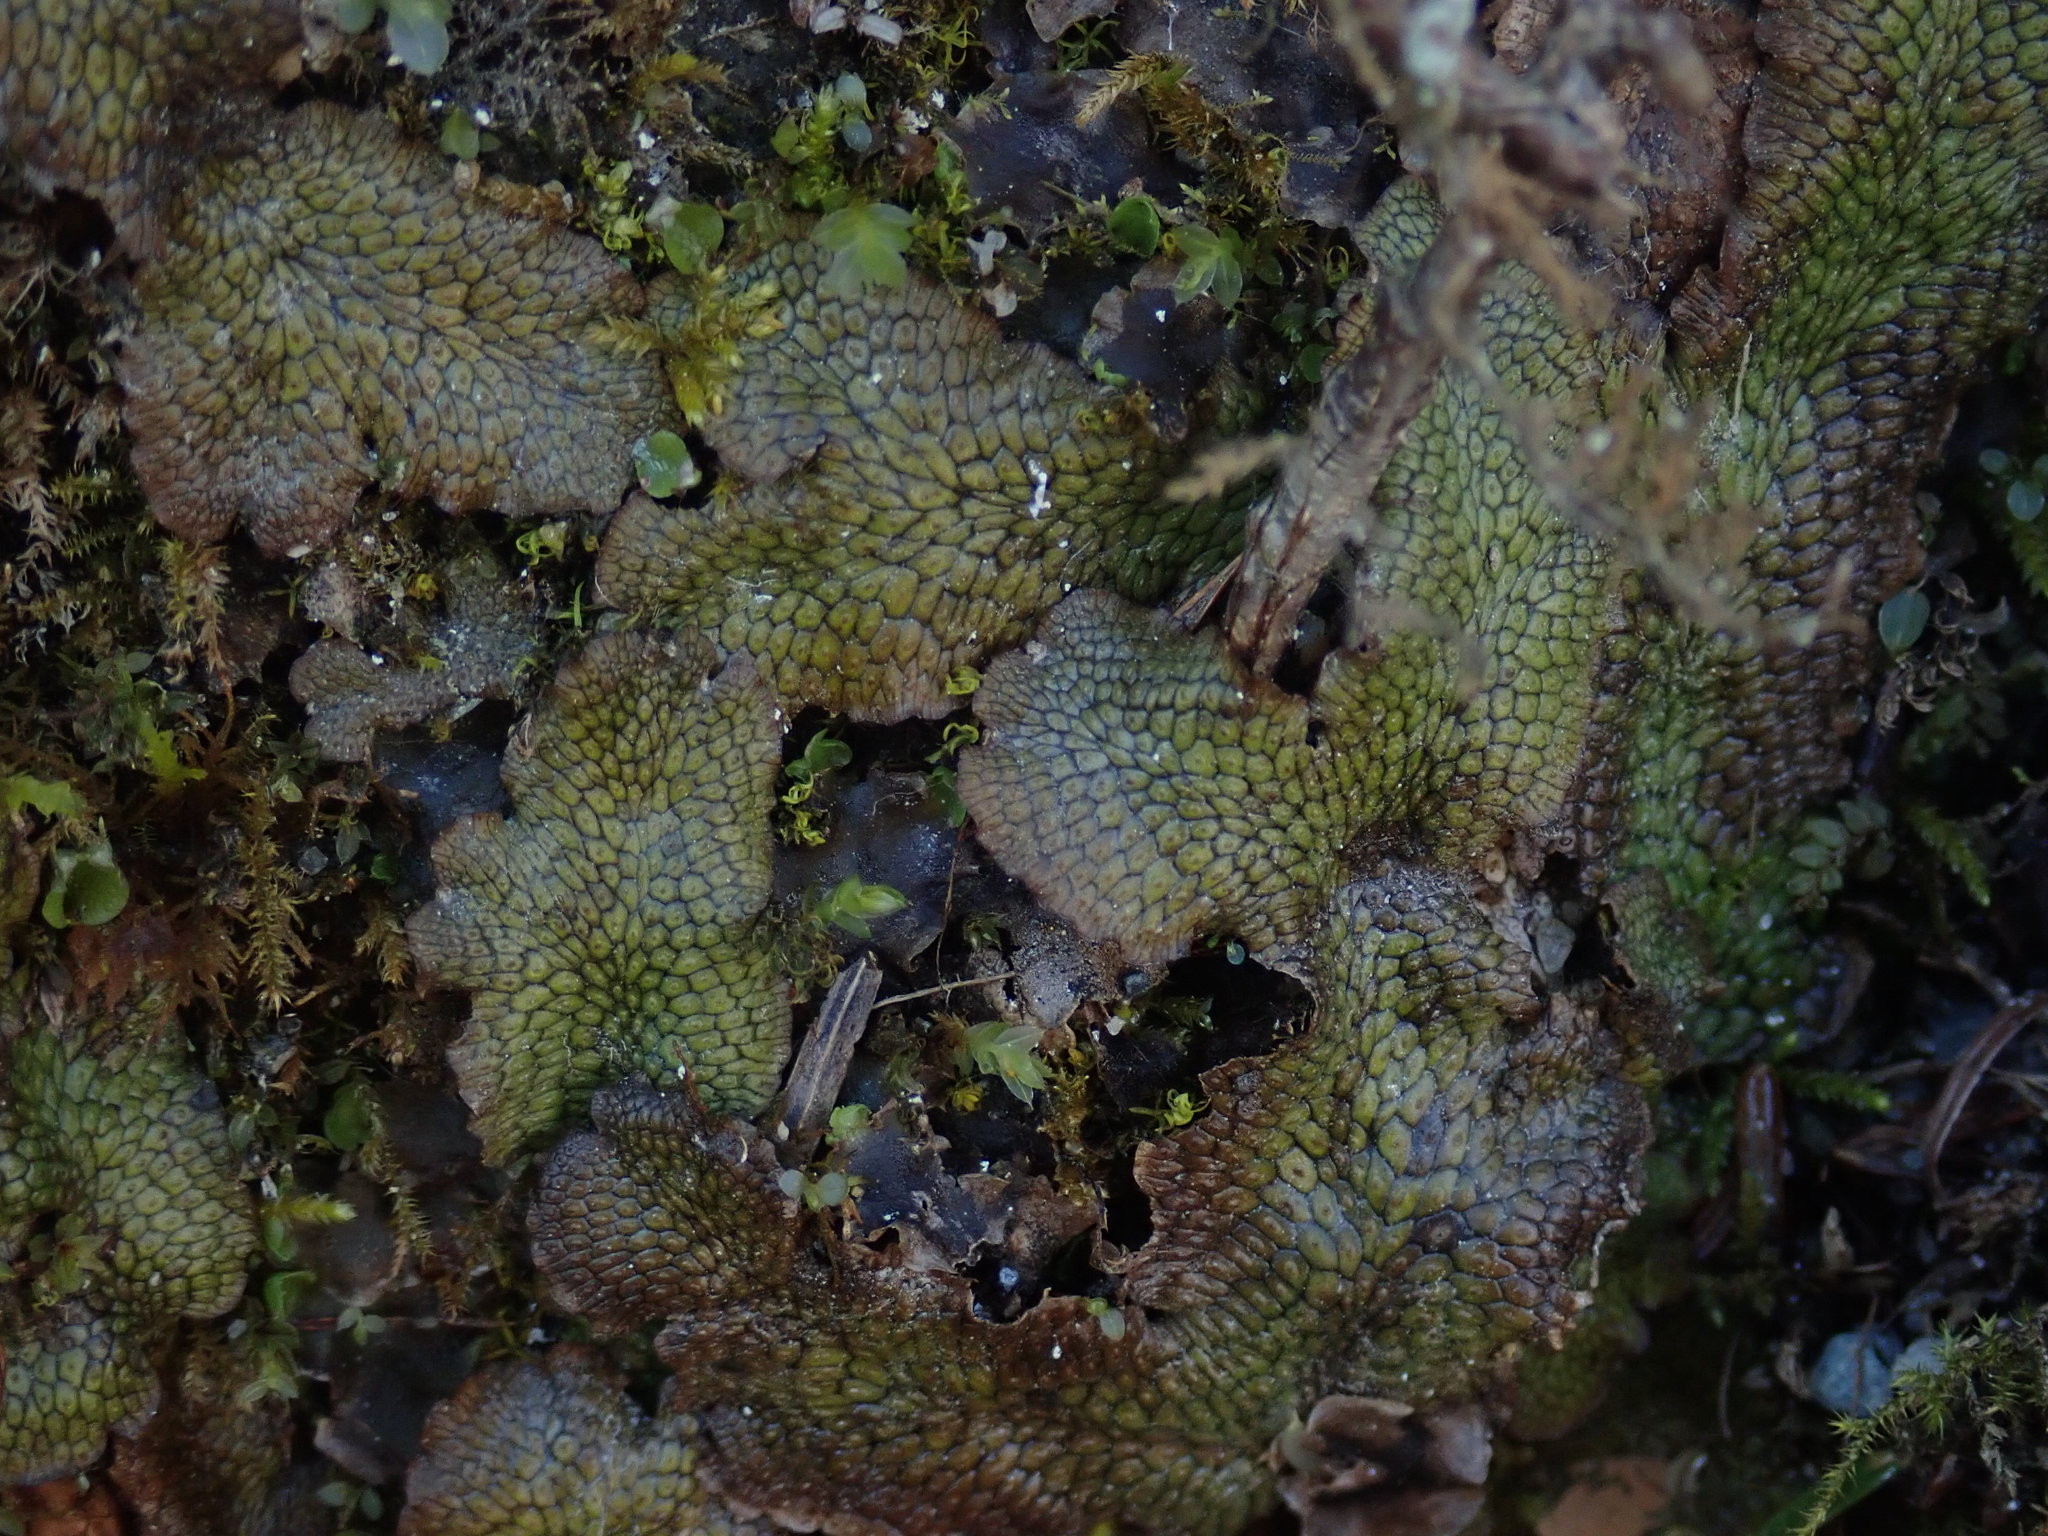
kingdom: Plantae
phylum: Marchantiophyta
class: Marchantiopsida
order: Marchantiales
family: Conocephalaceae
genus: Conocephalum
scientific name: Conocephalum salebrosum
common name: Cat-tongue liverwort
